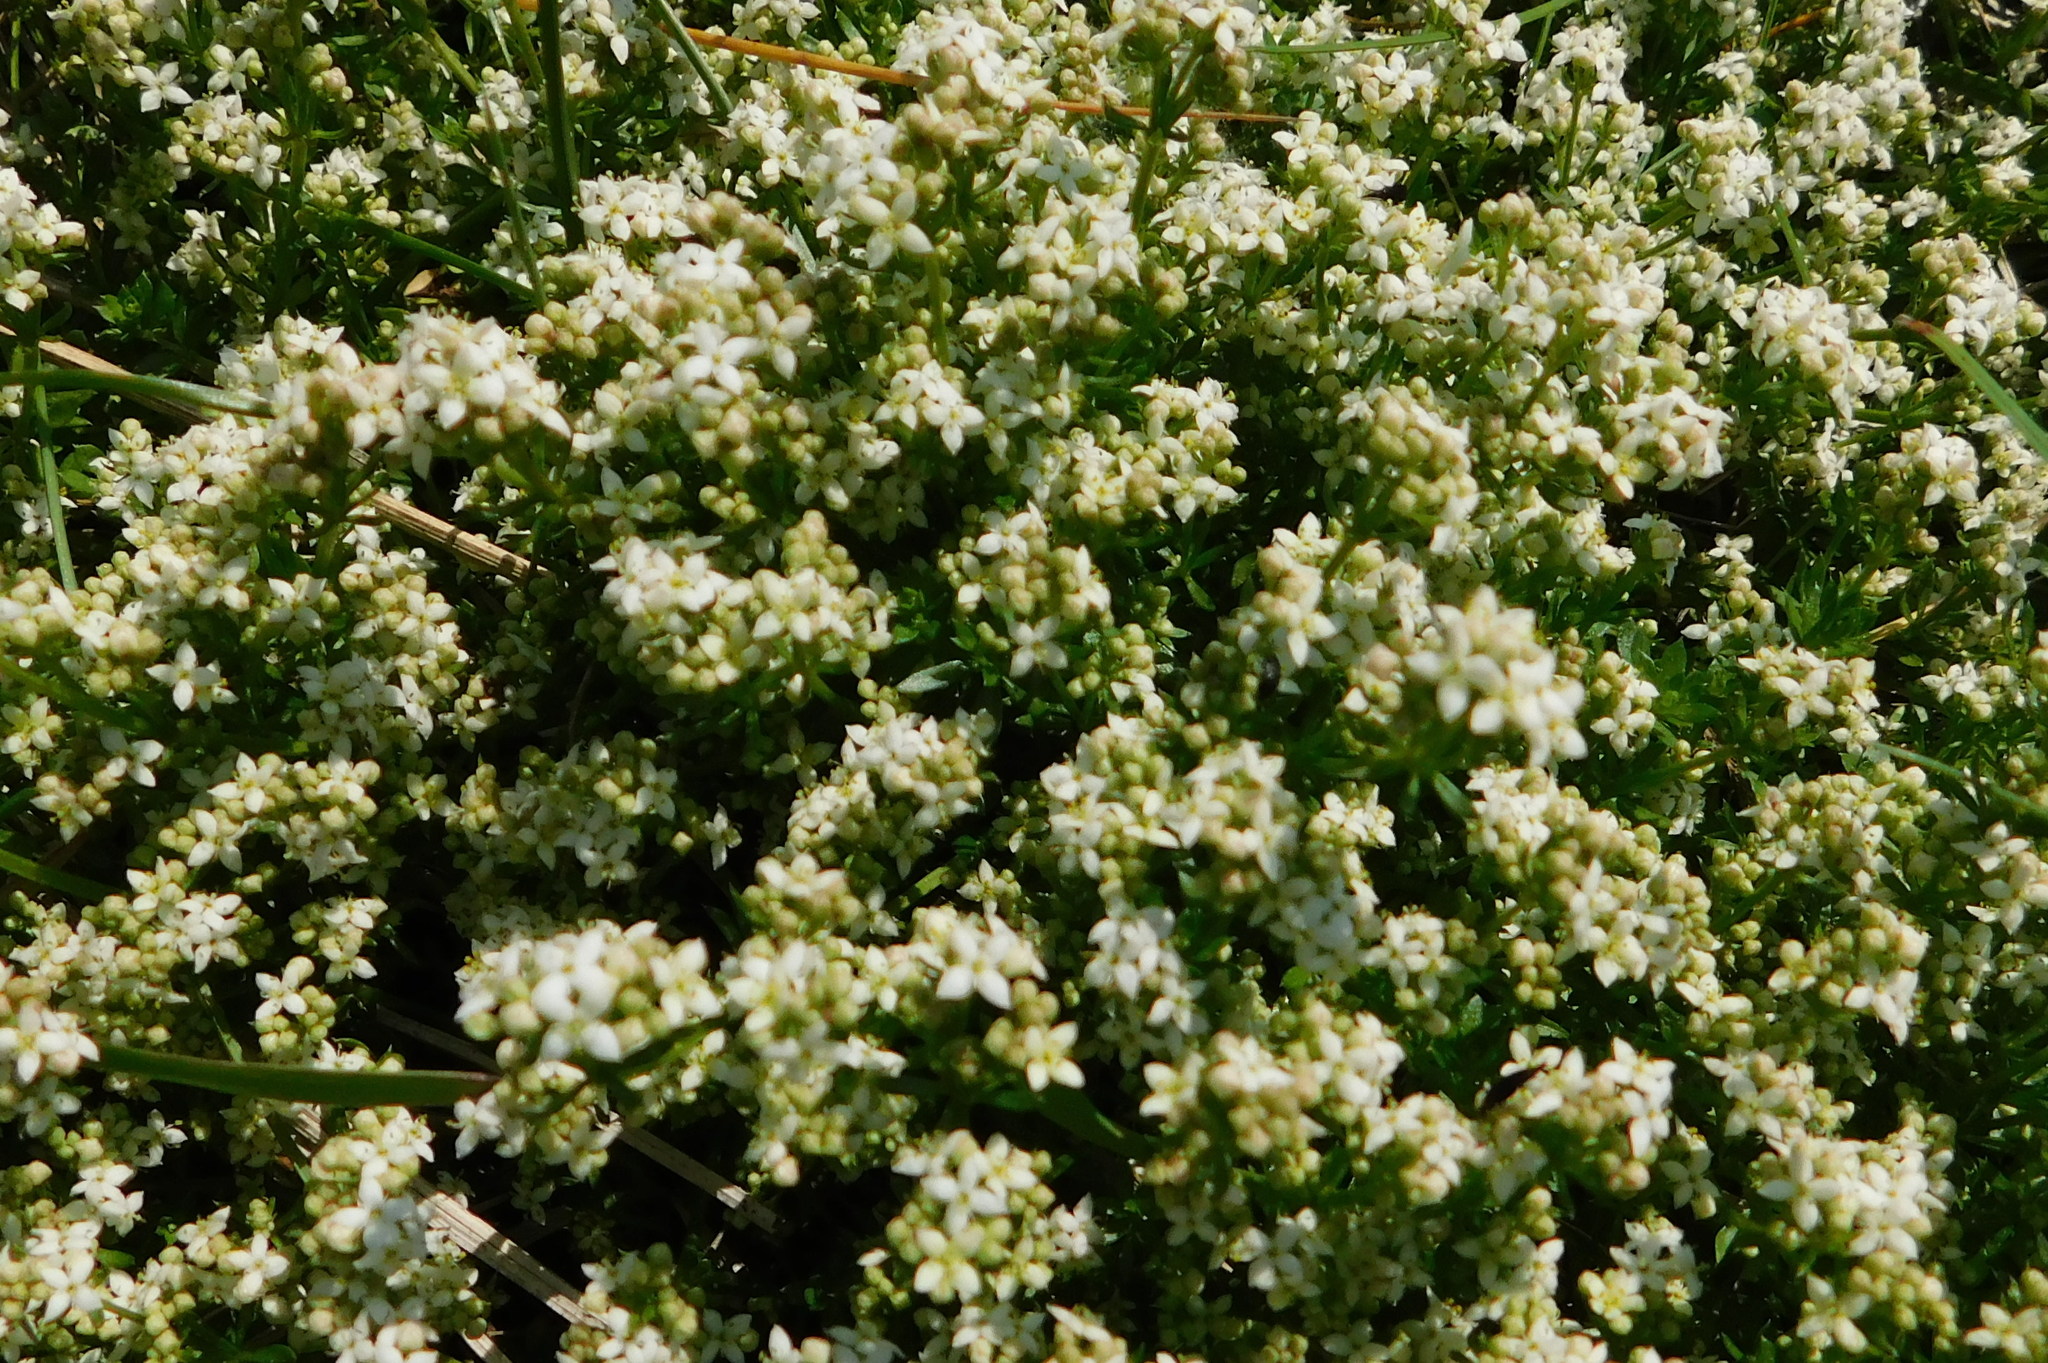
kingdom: Plantae
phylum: Tracheophyta
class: Magnoliopsida
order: Gentianales
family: Rubiaceae
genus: Galium
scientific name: Galium saxatile
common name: Heath bedstraw
